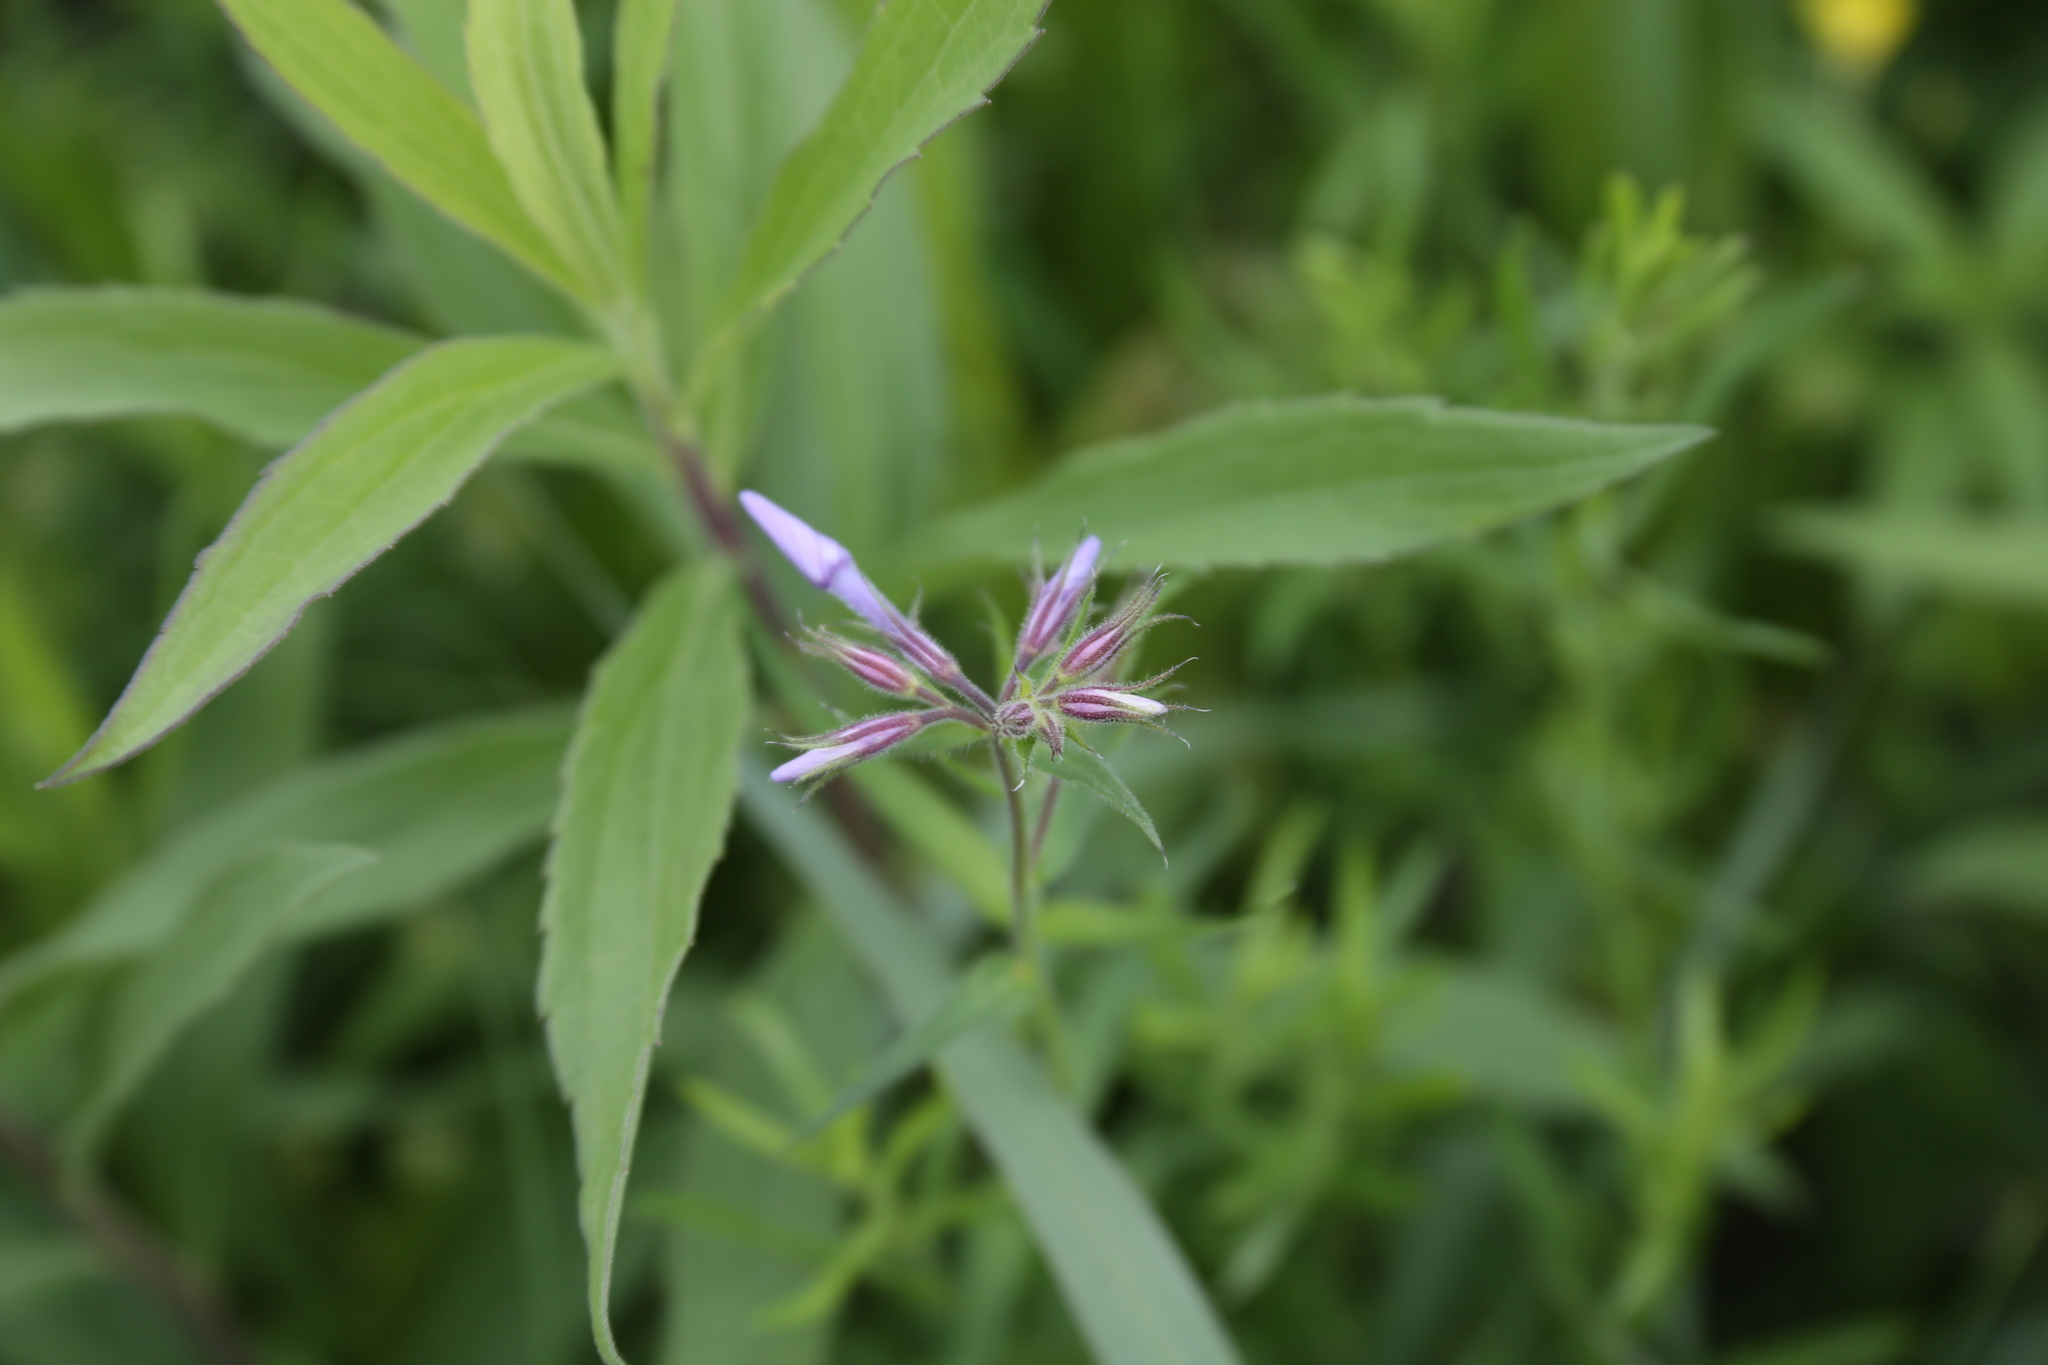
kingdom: Plantae
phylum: Tracheophyta
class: Magnoliopsida
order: Ericales
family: Polemoniaceae
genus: Phlox
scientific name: Phlox pilosa
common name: Prairie phlox
